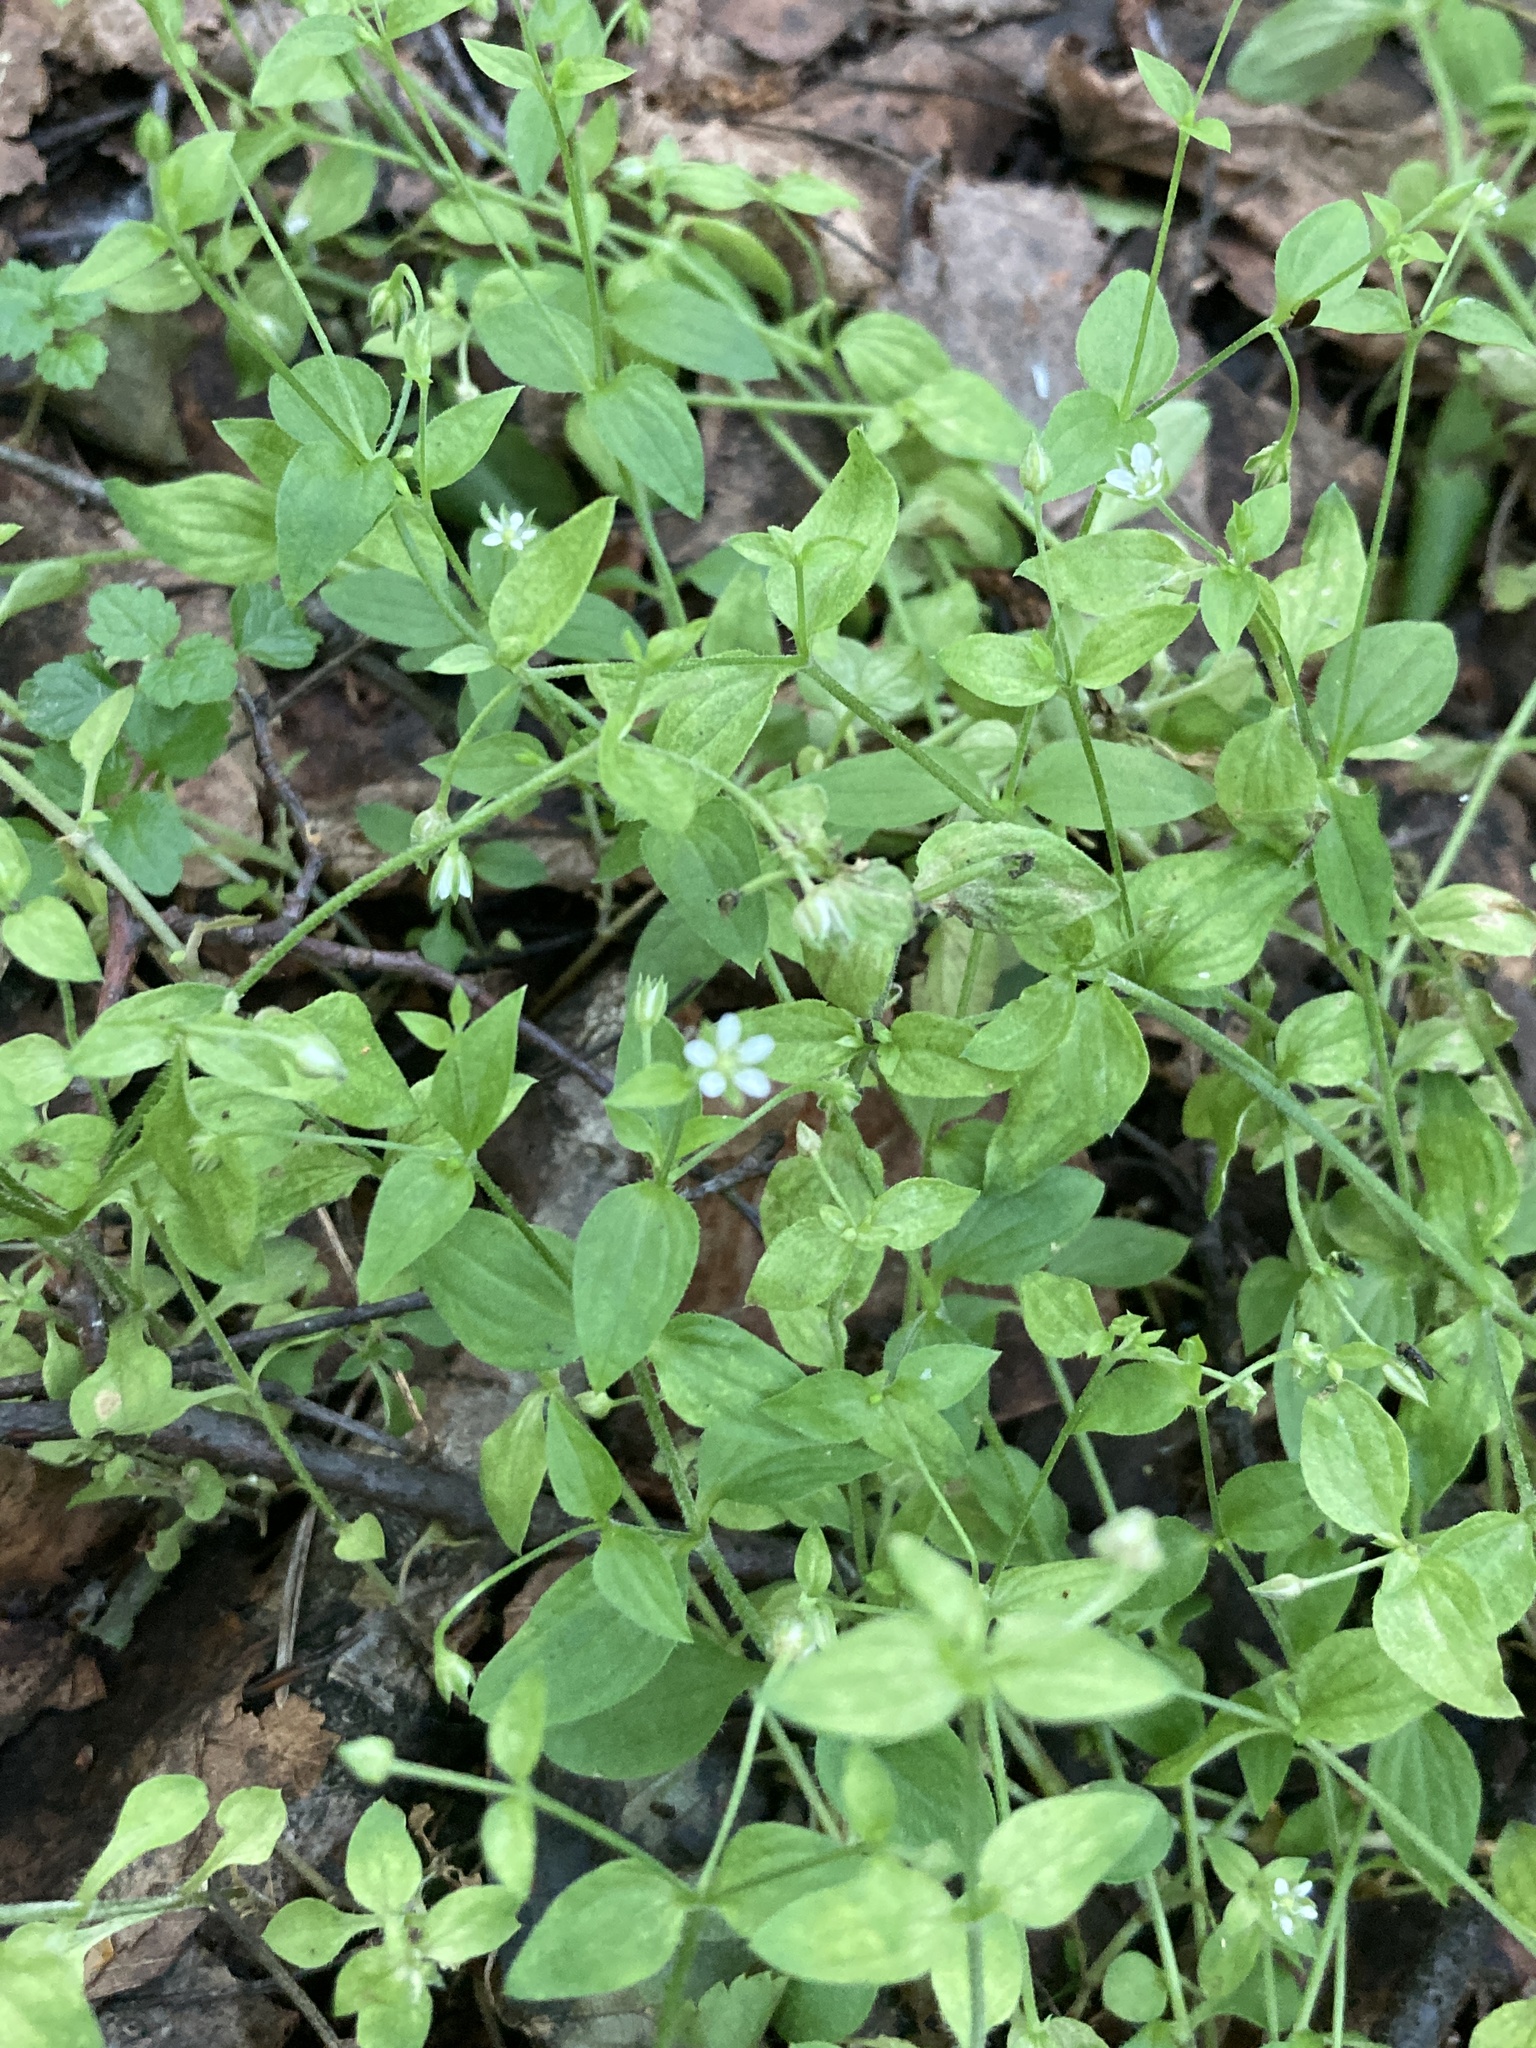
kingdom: Plantae
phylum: Tracheophyta
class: Magnoliopsida
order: Caryophyllales
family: Caryophyllaceae
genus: Moehringia
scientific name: Moehringia trinervia
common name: Three-nerved sandwort
